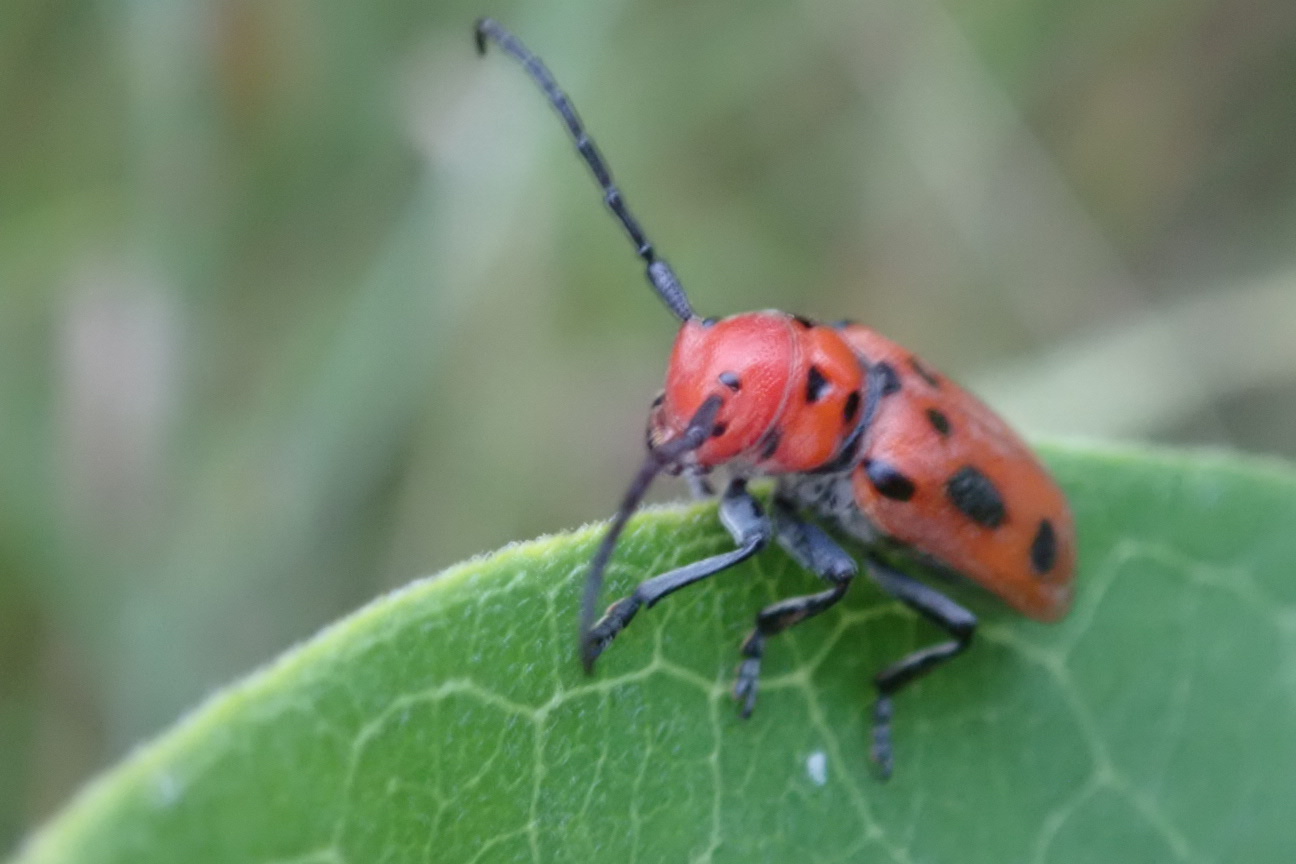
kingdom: Animalia
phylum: Arthropoda
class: Insecta
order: Coleoptera
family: Cerambycidae
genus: Tetraopes
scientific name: Tetraopes tetrophthalmus
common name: Red milkweed beetle
